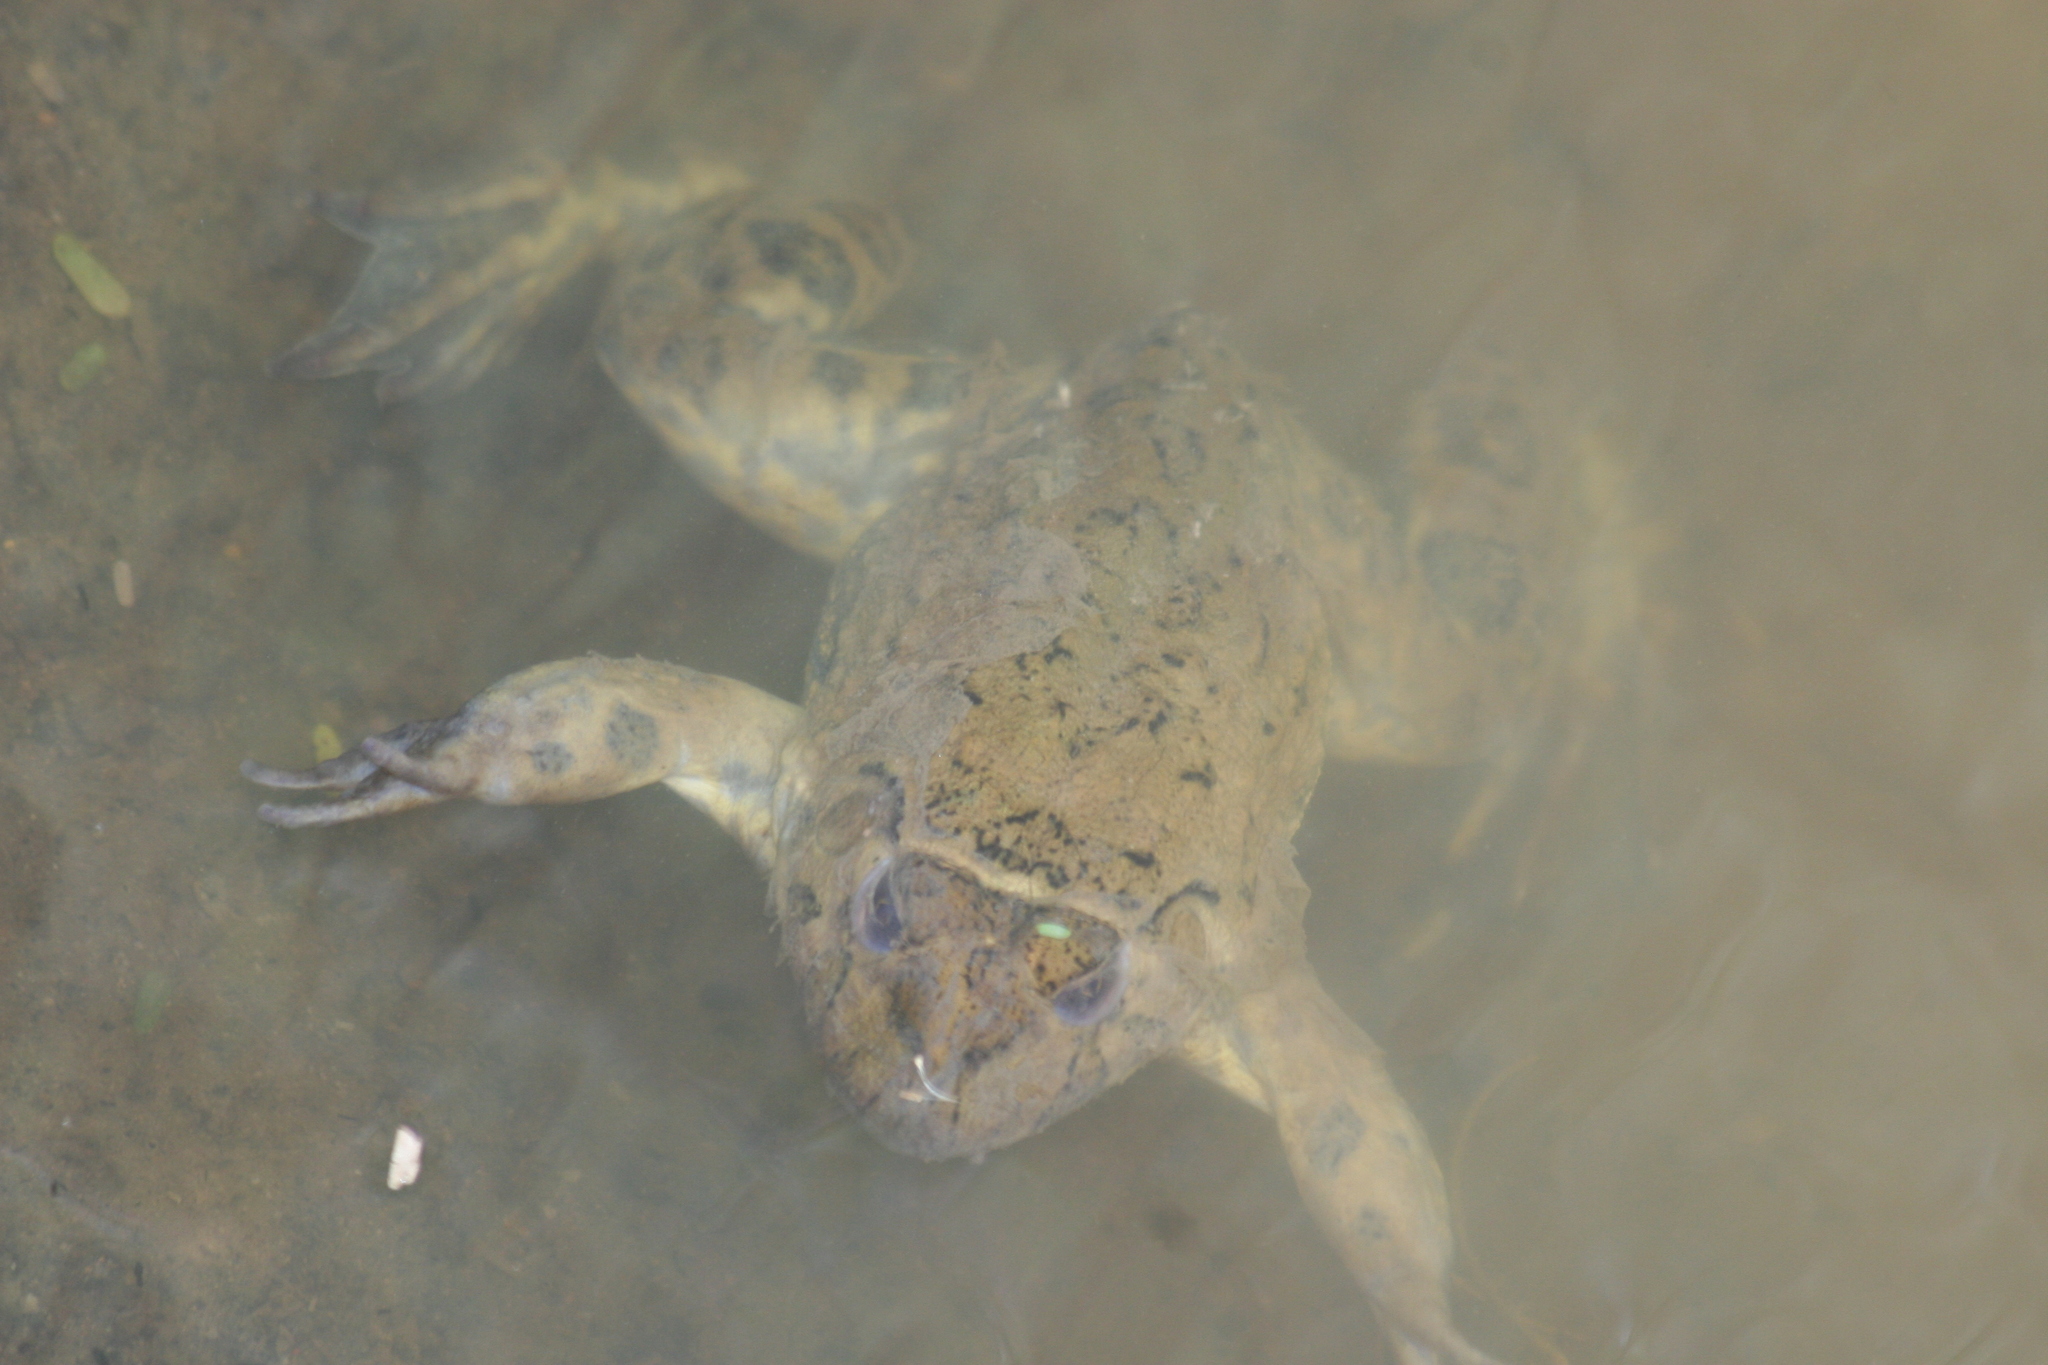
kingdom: Animalia
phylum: Chordata
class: Amphibia
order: Anura
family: Dicroglossidae
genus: Hoplobatrachus
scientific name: Hoplobatrachus occipitalis
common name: Eastern groove-crowned bullfrog
